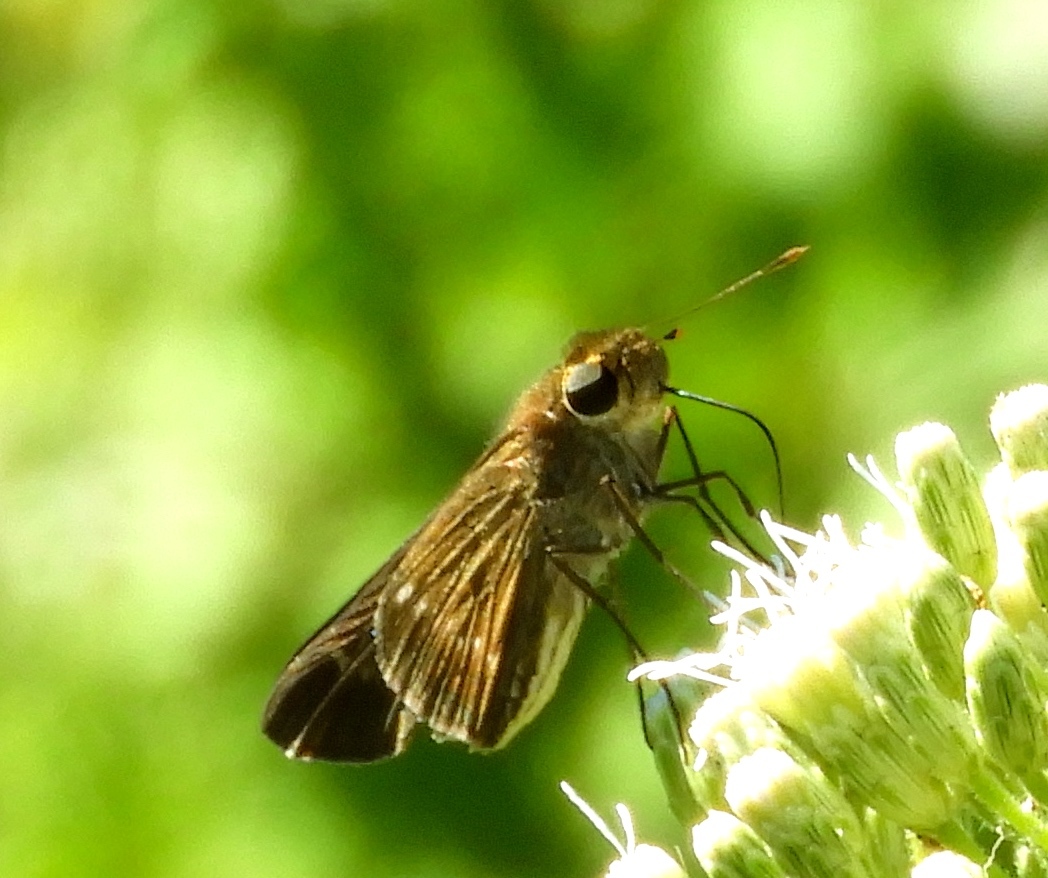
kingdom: Animalia
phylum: Arthropoda
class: Insecta
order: Lepidoptera
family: Hesperiidae
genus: Panoquina
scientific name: Panoquina
